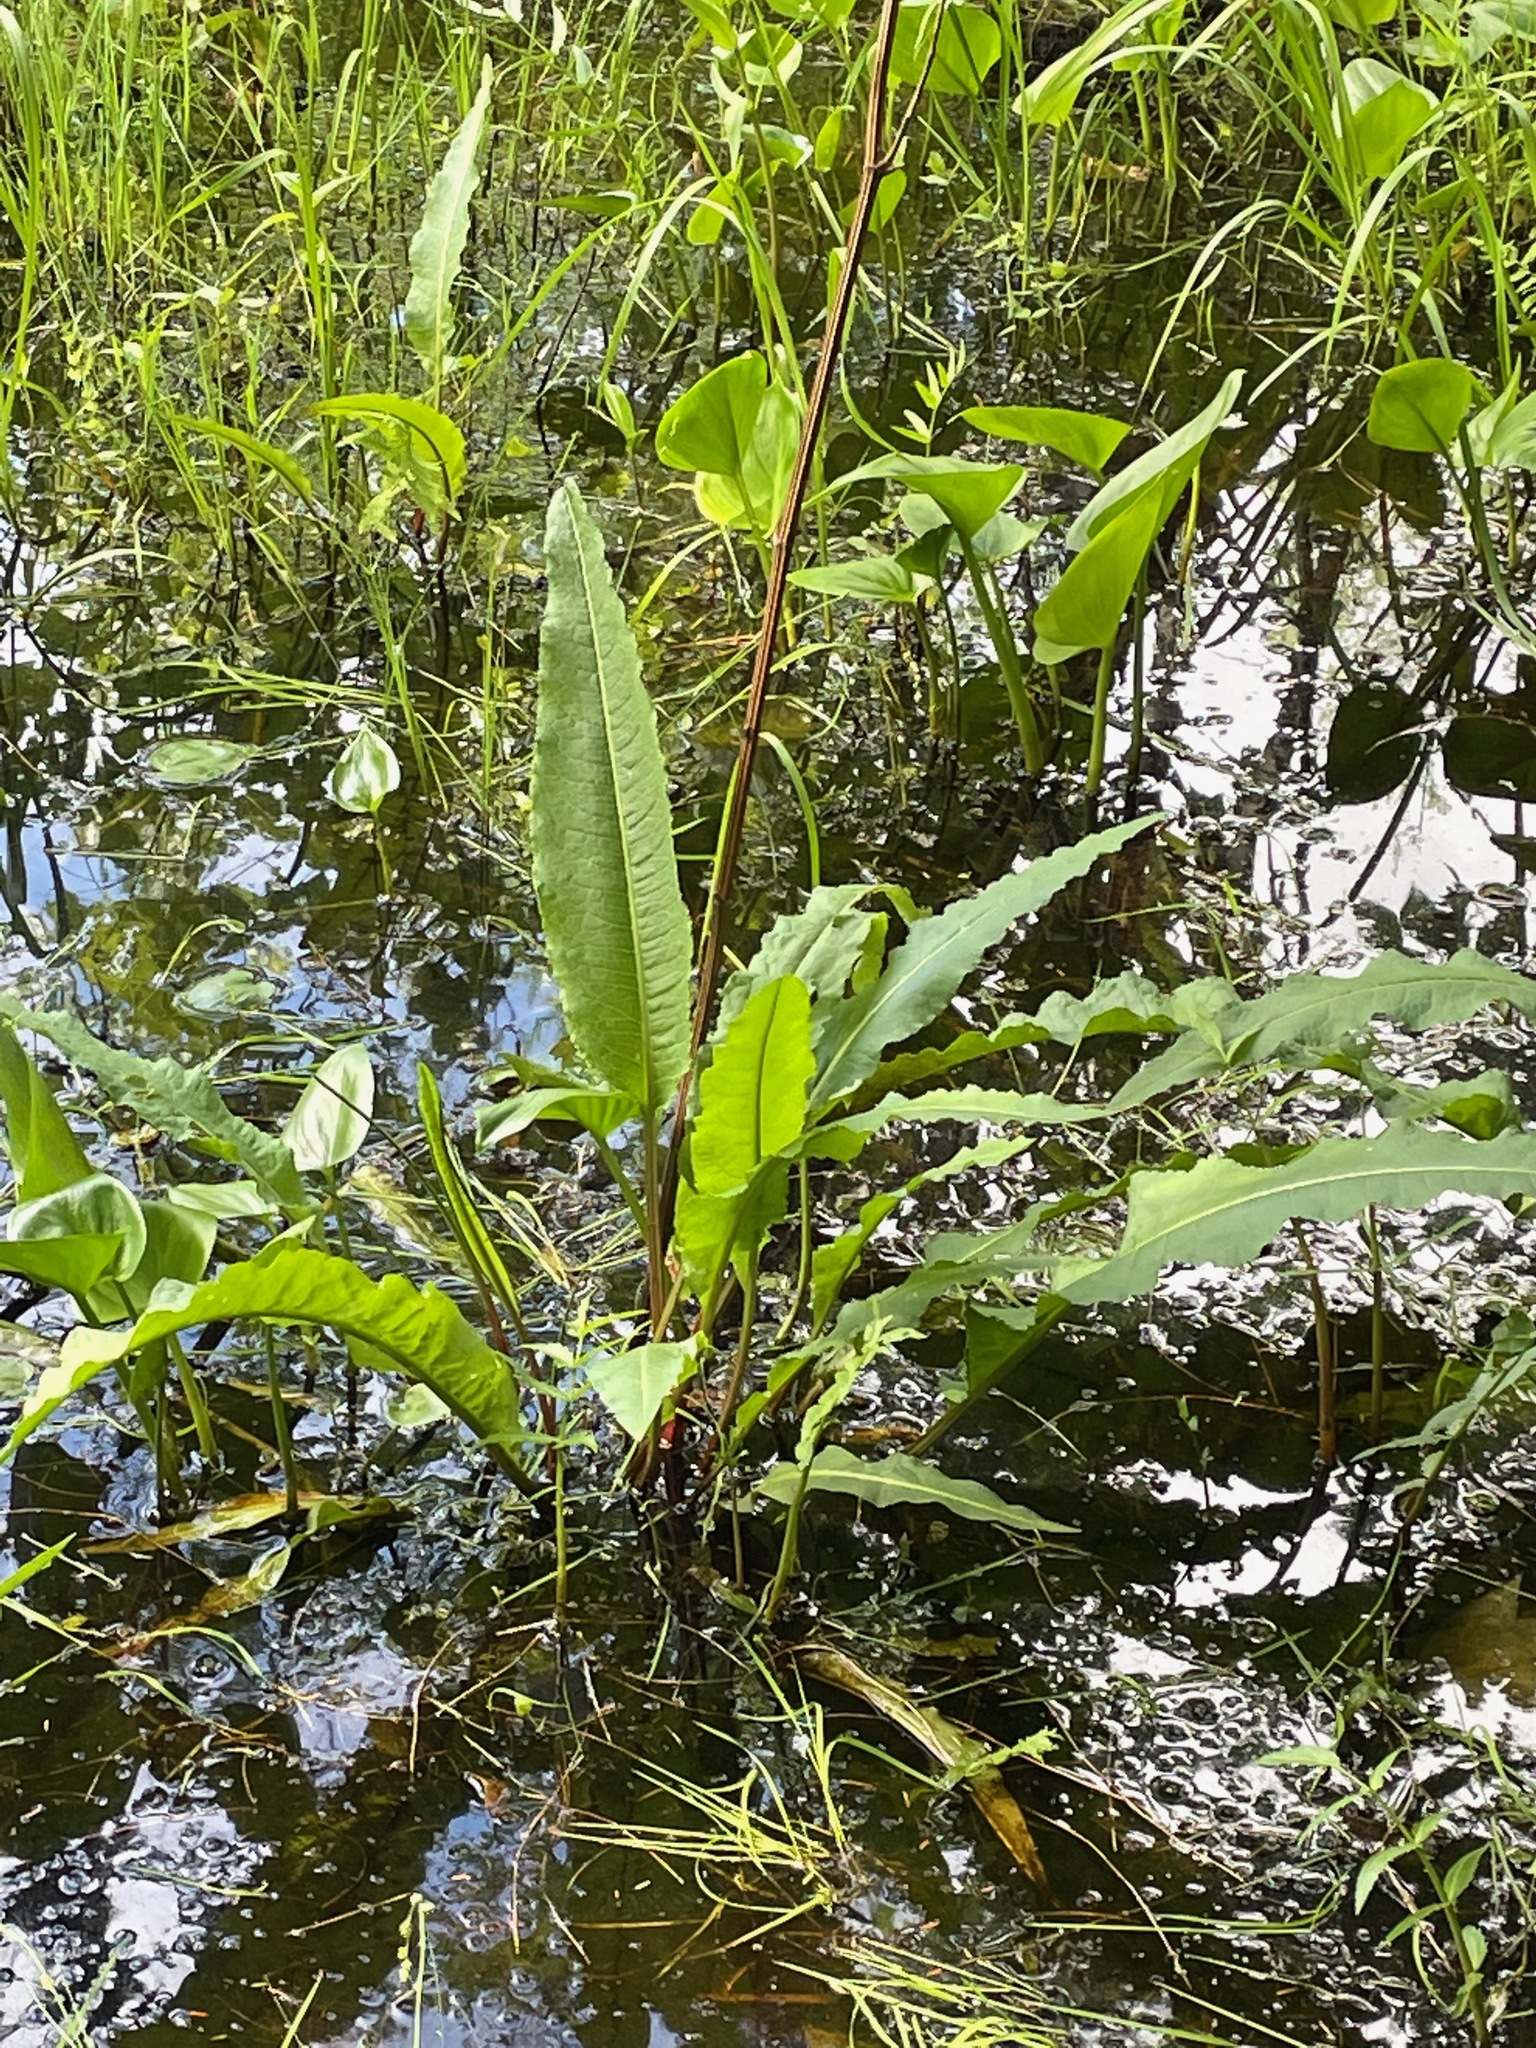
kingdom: Plantae
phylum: Tracheophyta
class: Magnoliopsida
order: Caryophyllales
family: Polygonaceae
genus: Rumex
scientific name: Rumex britannica
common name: British dock
